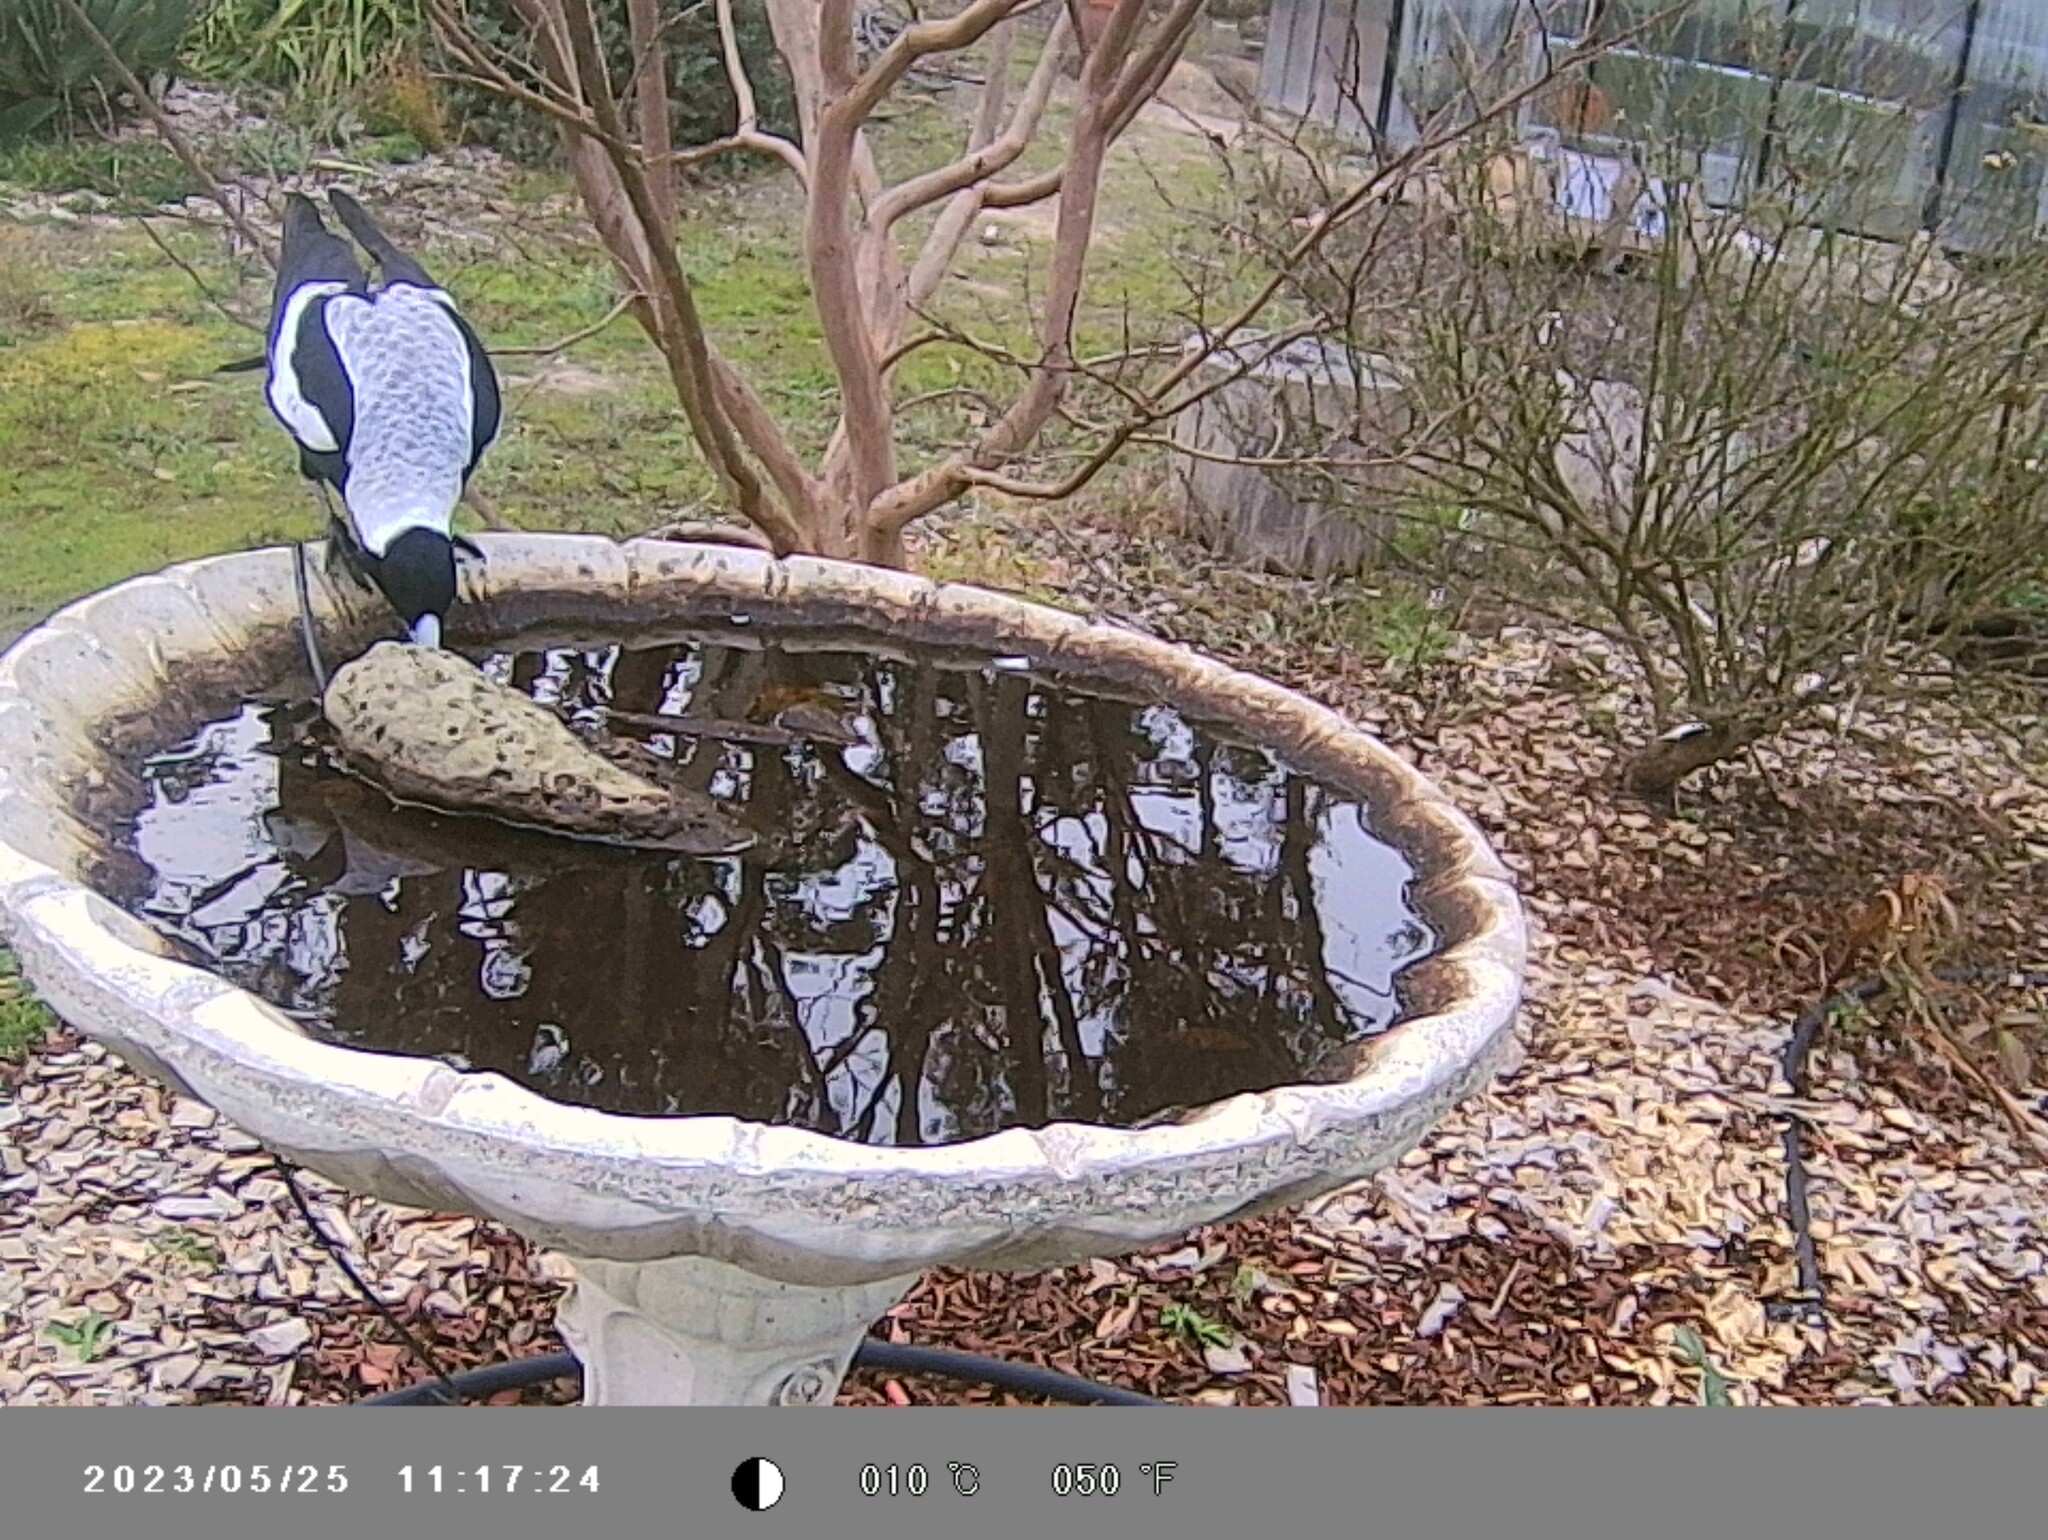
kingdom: Animalia
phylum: Chordata
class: Aves
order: Passeriformes
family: Cracticidae
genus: Gymnorhina
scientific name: Gymnorhina tibicen
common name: Australian magpie
